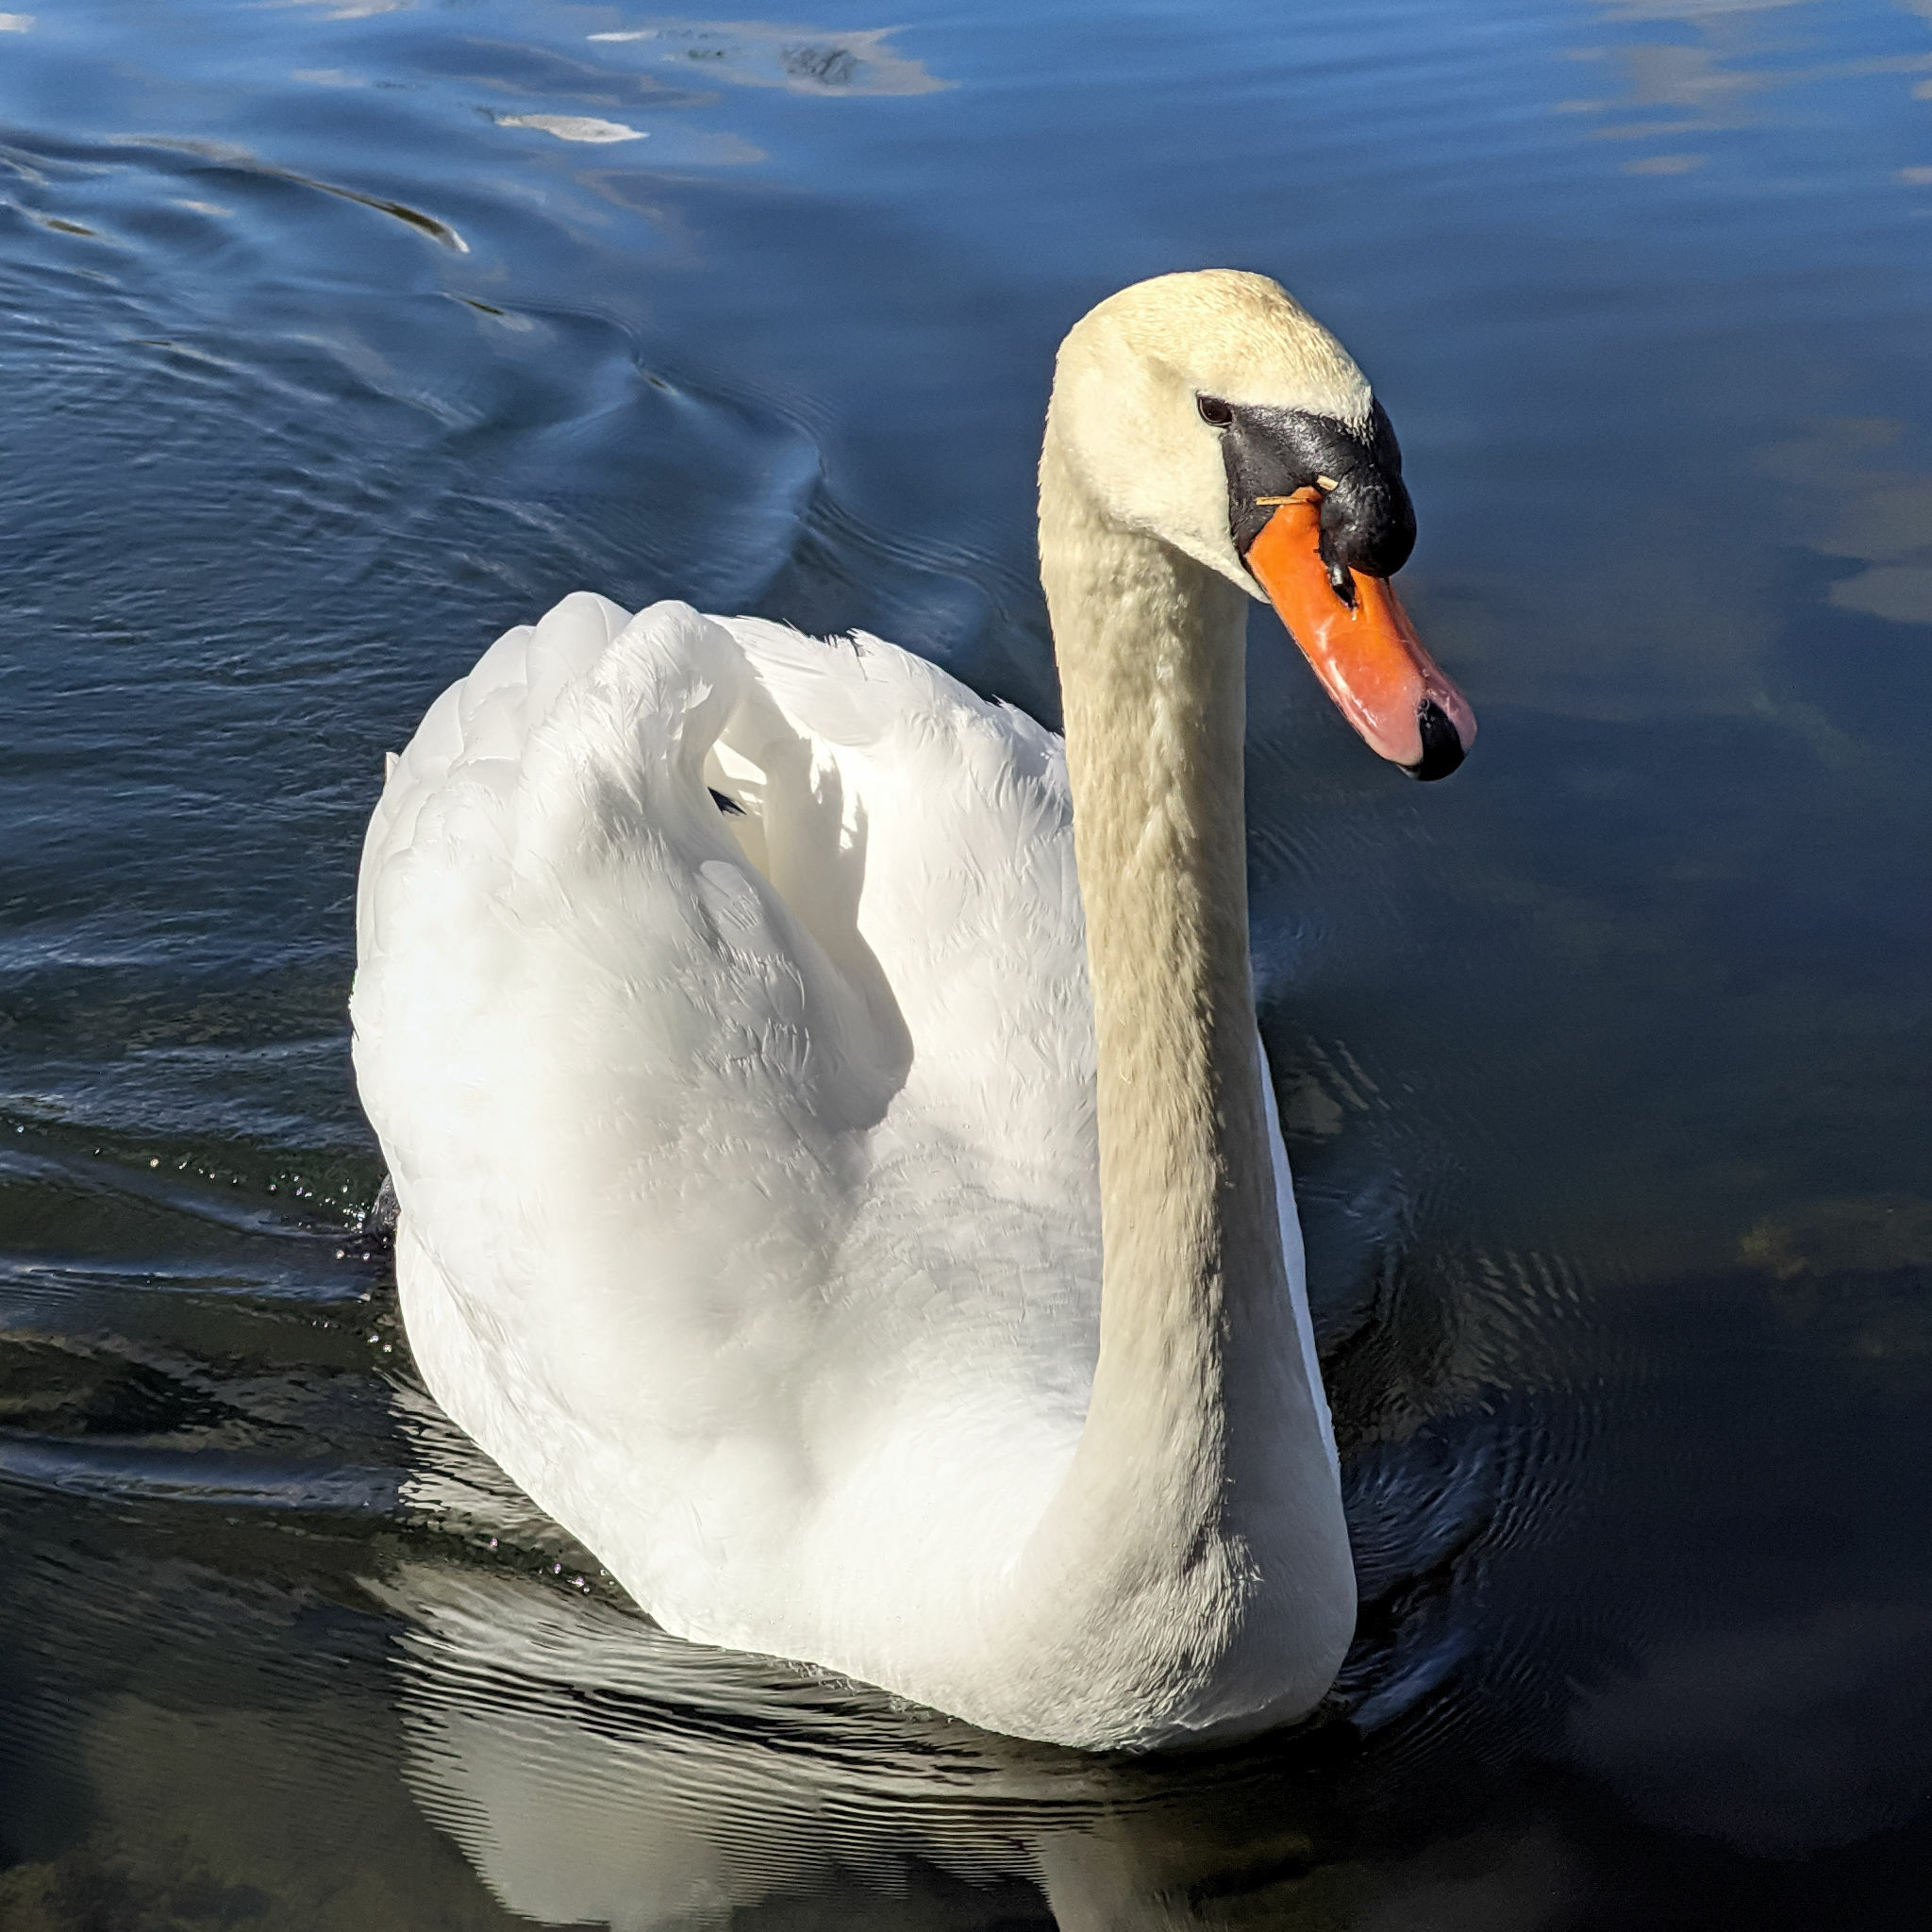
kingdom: Animalia
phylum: Chordata
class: Aves
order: Anseriformes
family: Anatidae
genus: Cygnus
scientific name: Cygnus olor
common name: Mute swan
